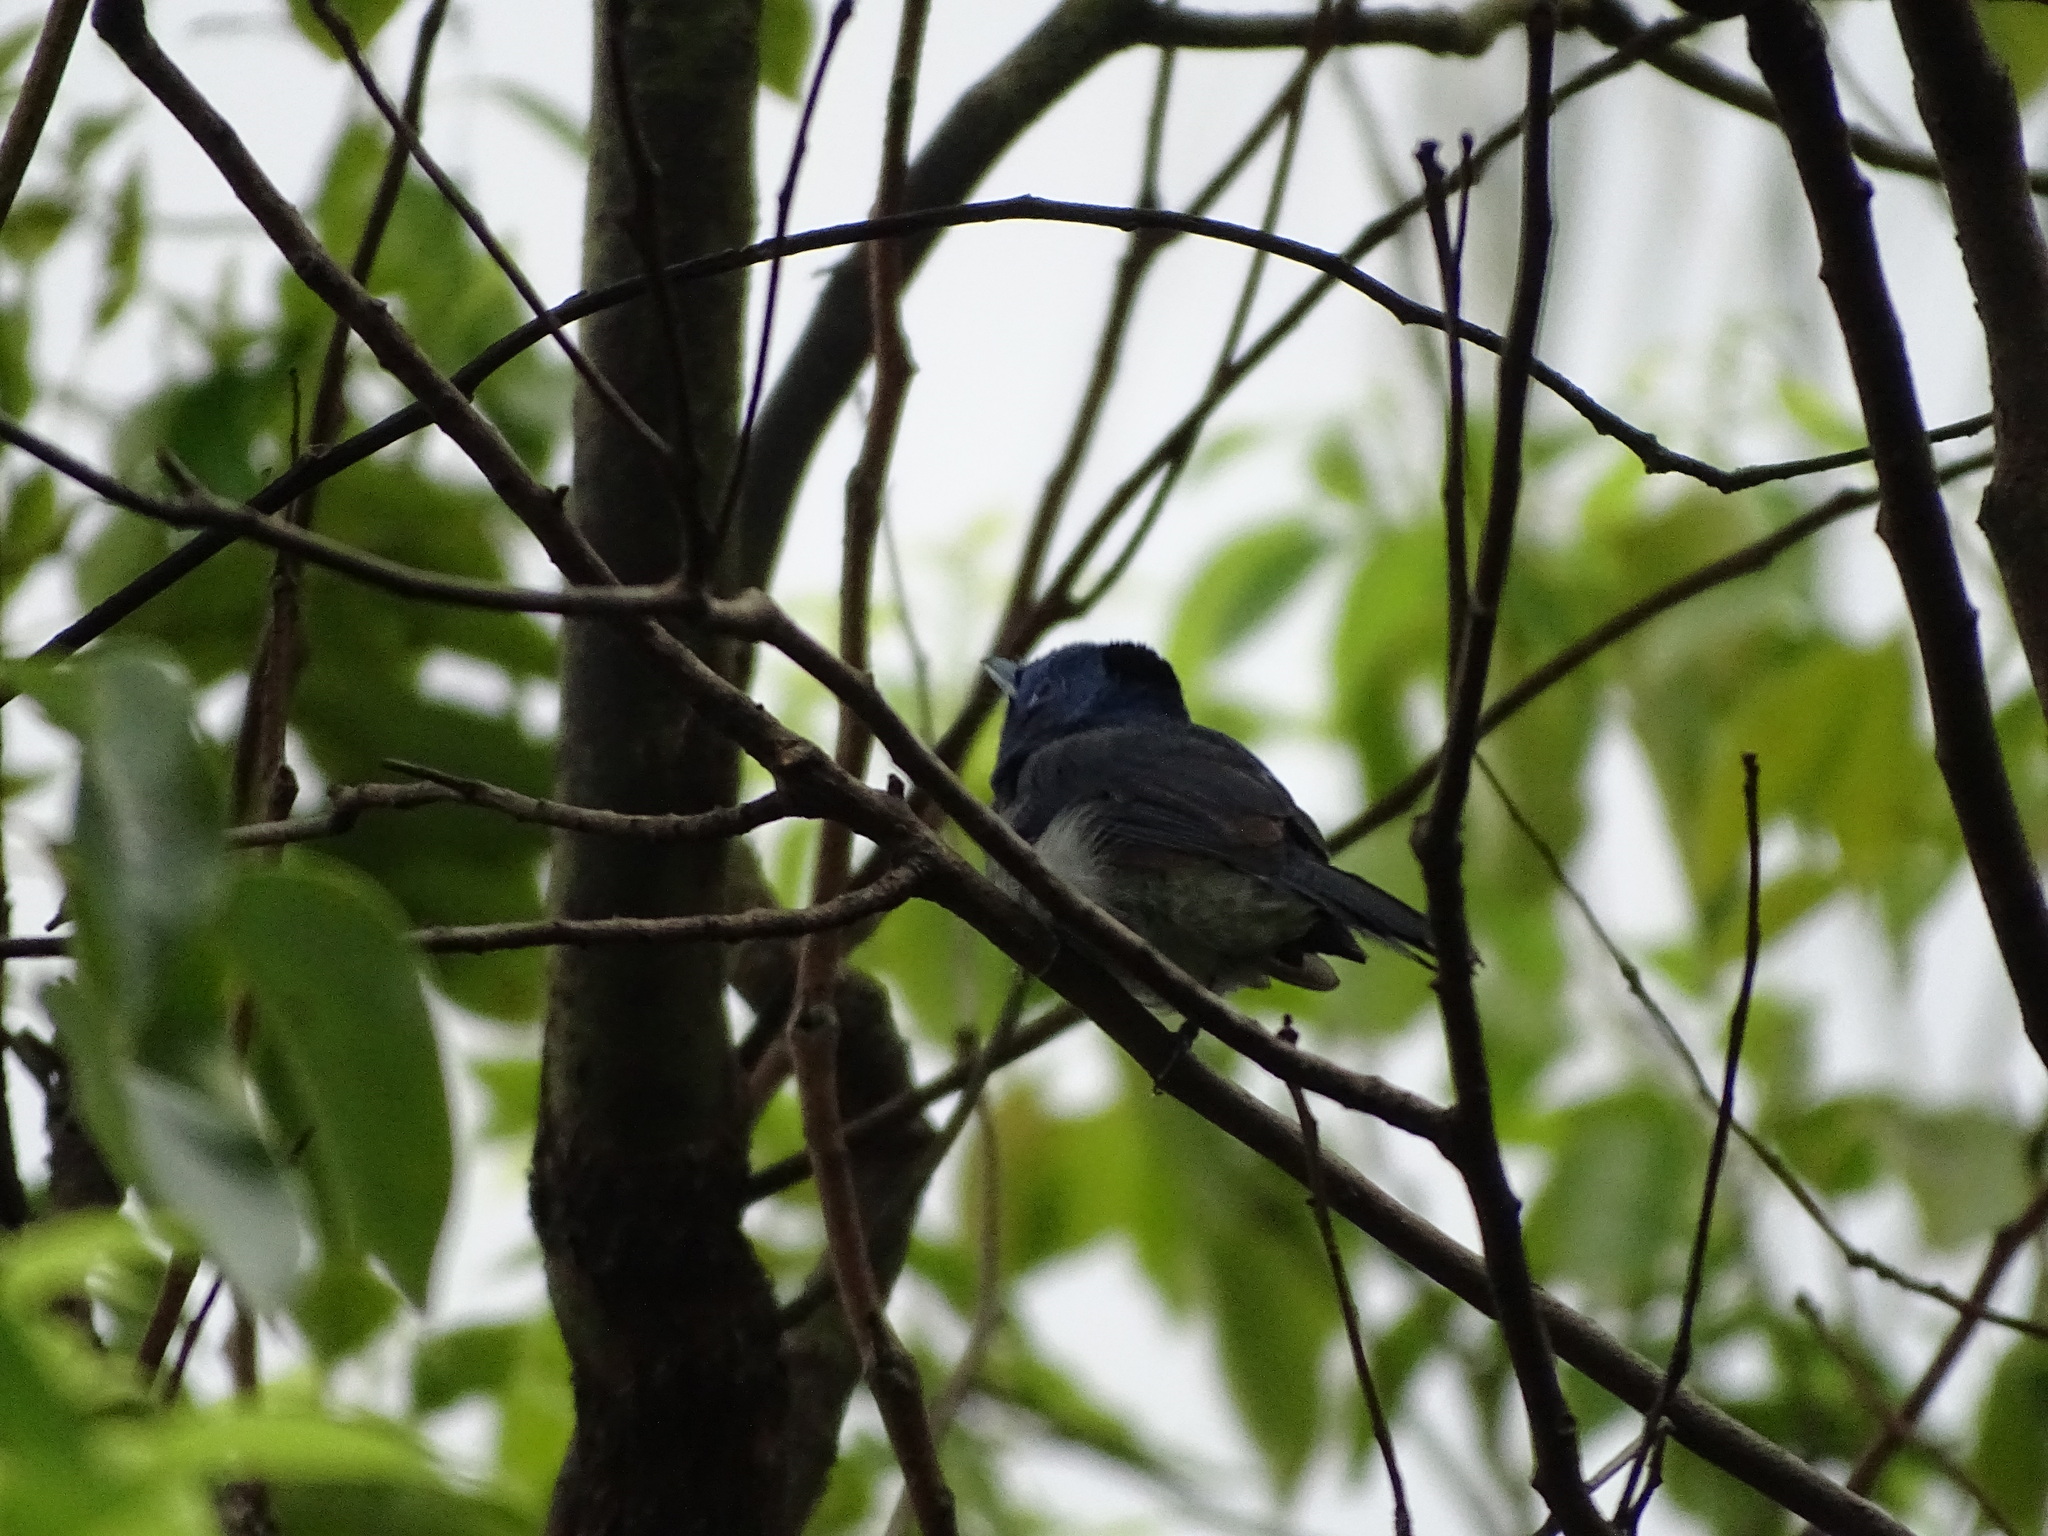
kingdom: Animalia
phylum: Chordata
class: Aves
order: Passeriformes
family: Monarchidae
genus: Hypothymis
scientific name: Hypothymis azurea
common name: Black-naped monarch
